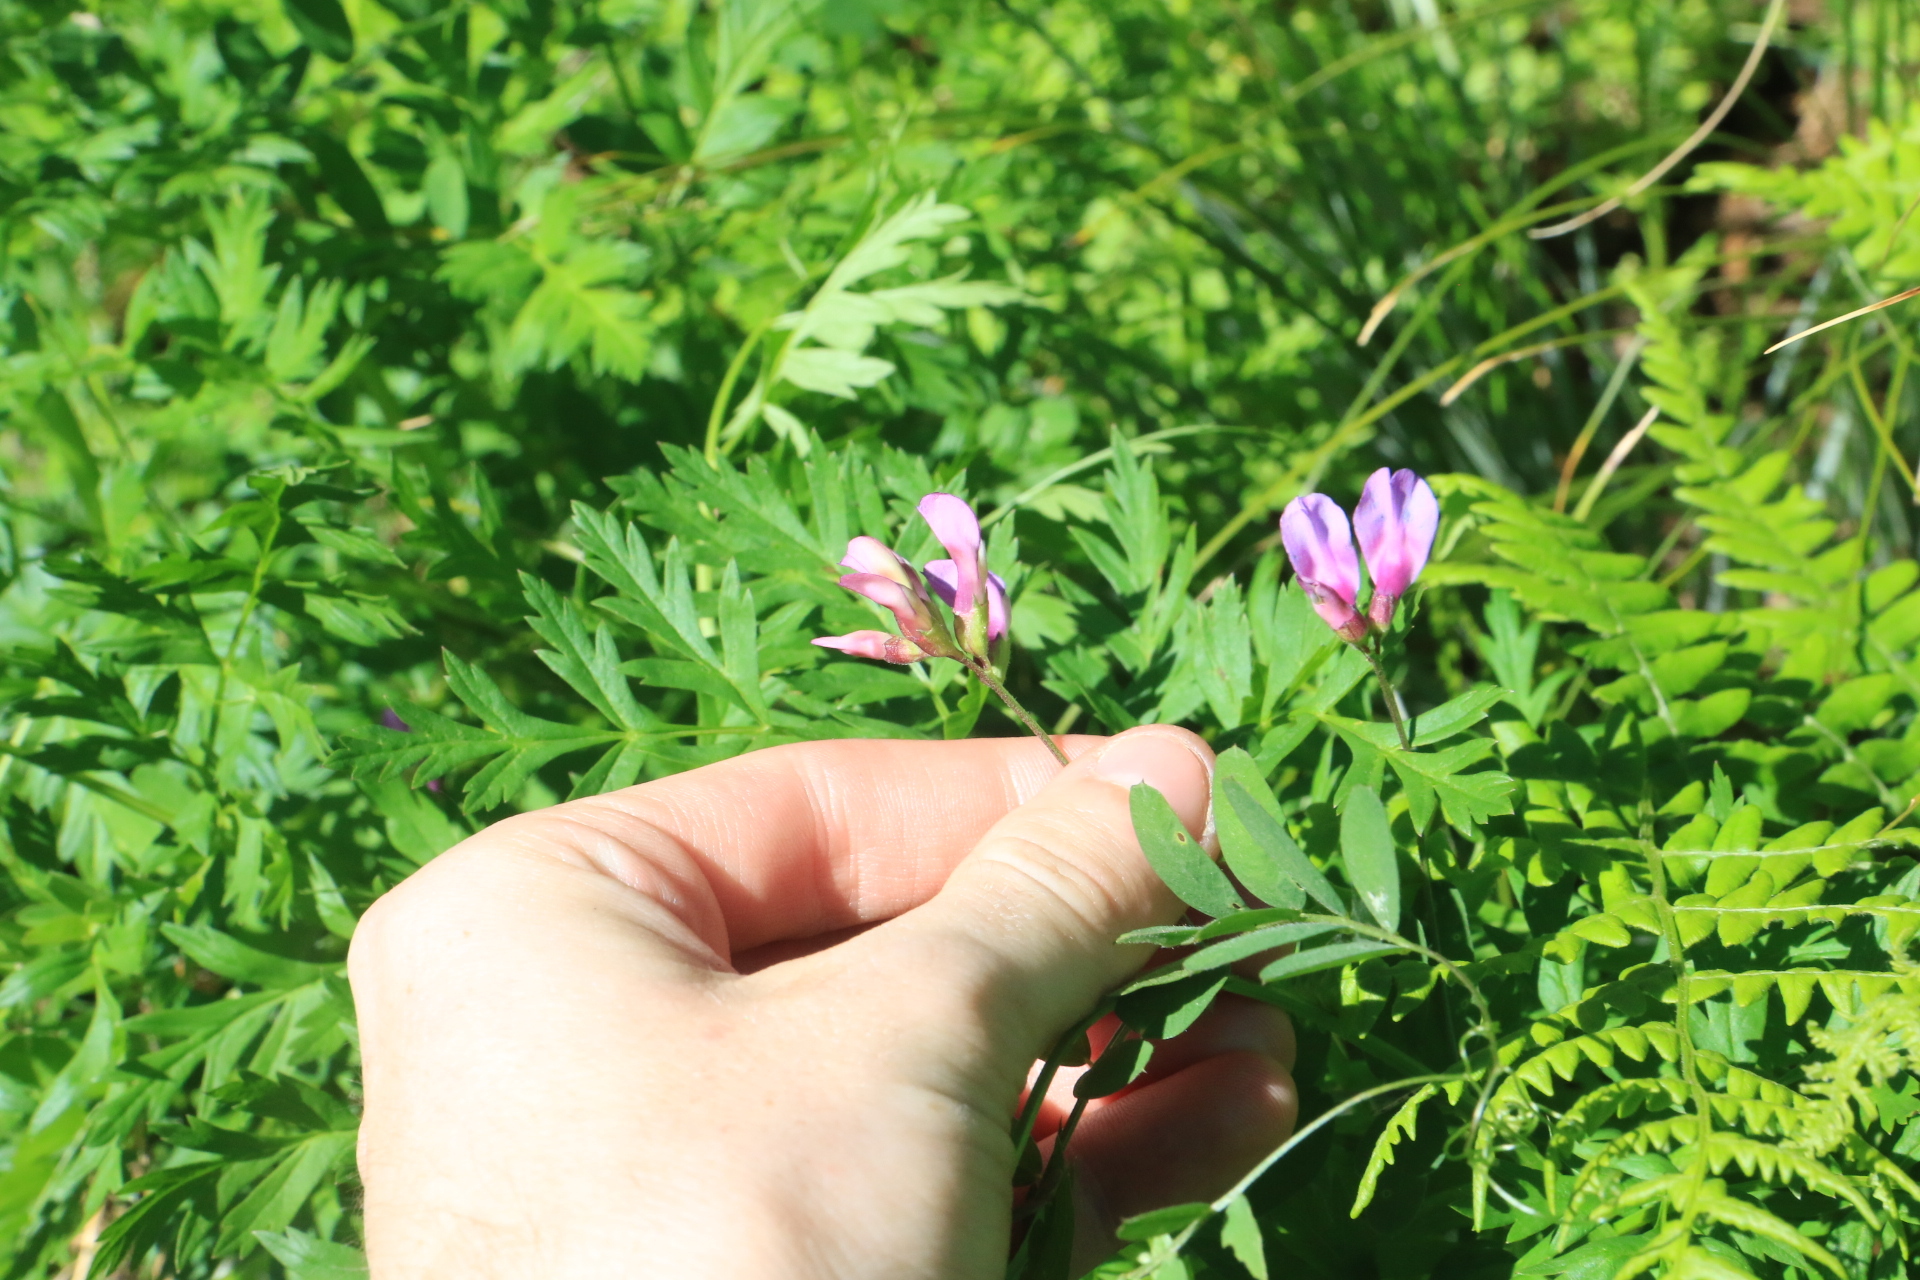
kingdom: Plantae
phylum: Tracheophyta
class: Magnoliopsida
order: Fabales
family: Fabaceae
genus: Vicia
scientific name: Vicia americana
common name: American vetch
